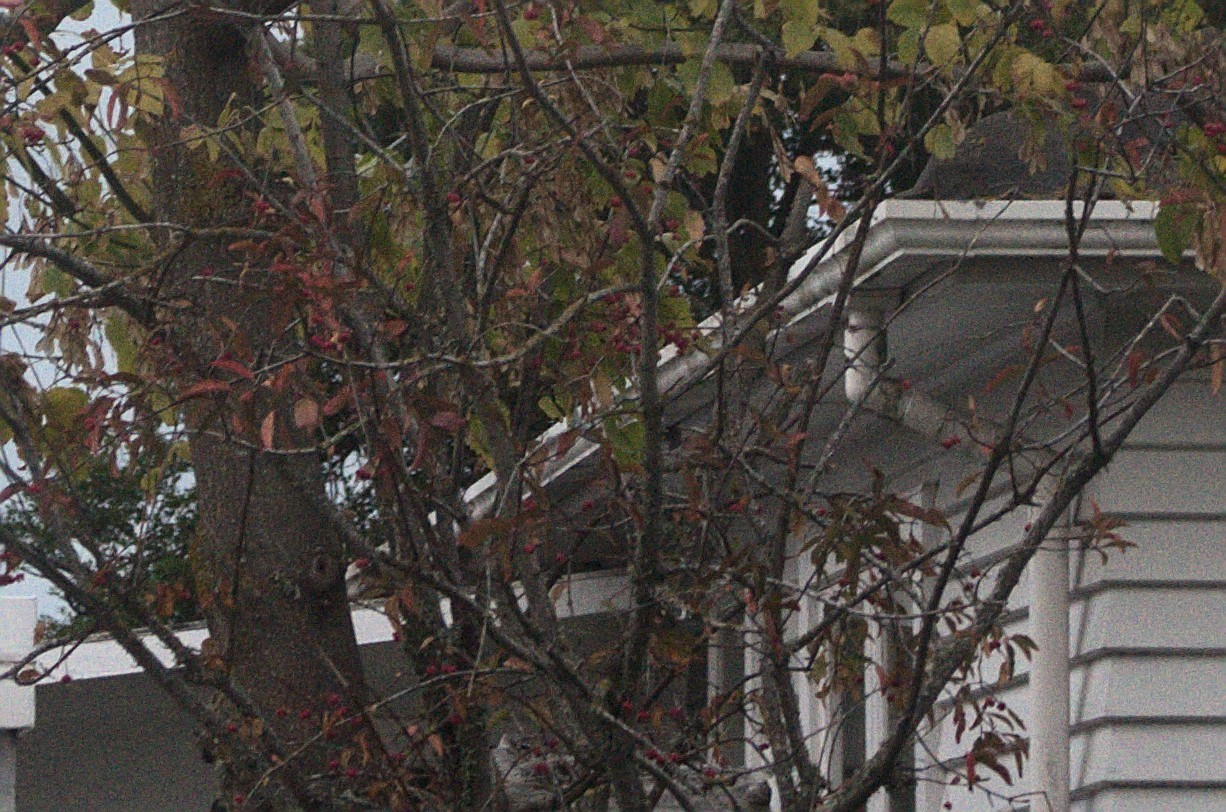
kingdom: Plantae
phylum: Tracheophyta
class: Magnoliopsida
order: Celastrales
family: Celastraceae
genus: Euonymus
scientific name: Euonymus europaeus
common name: Spindle
